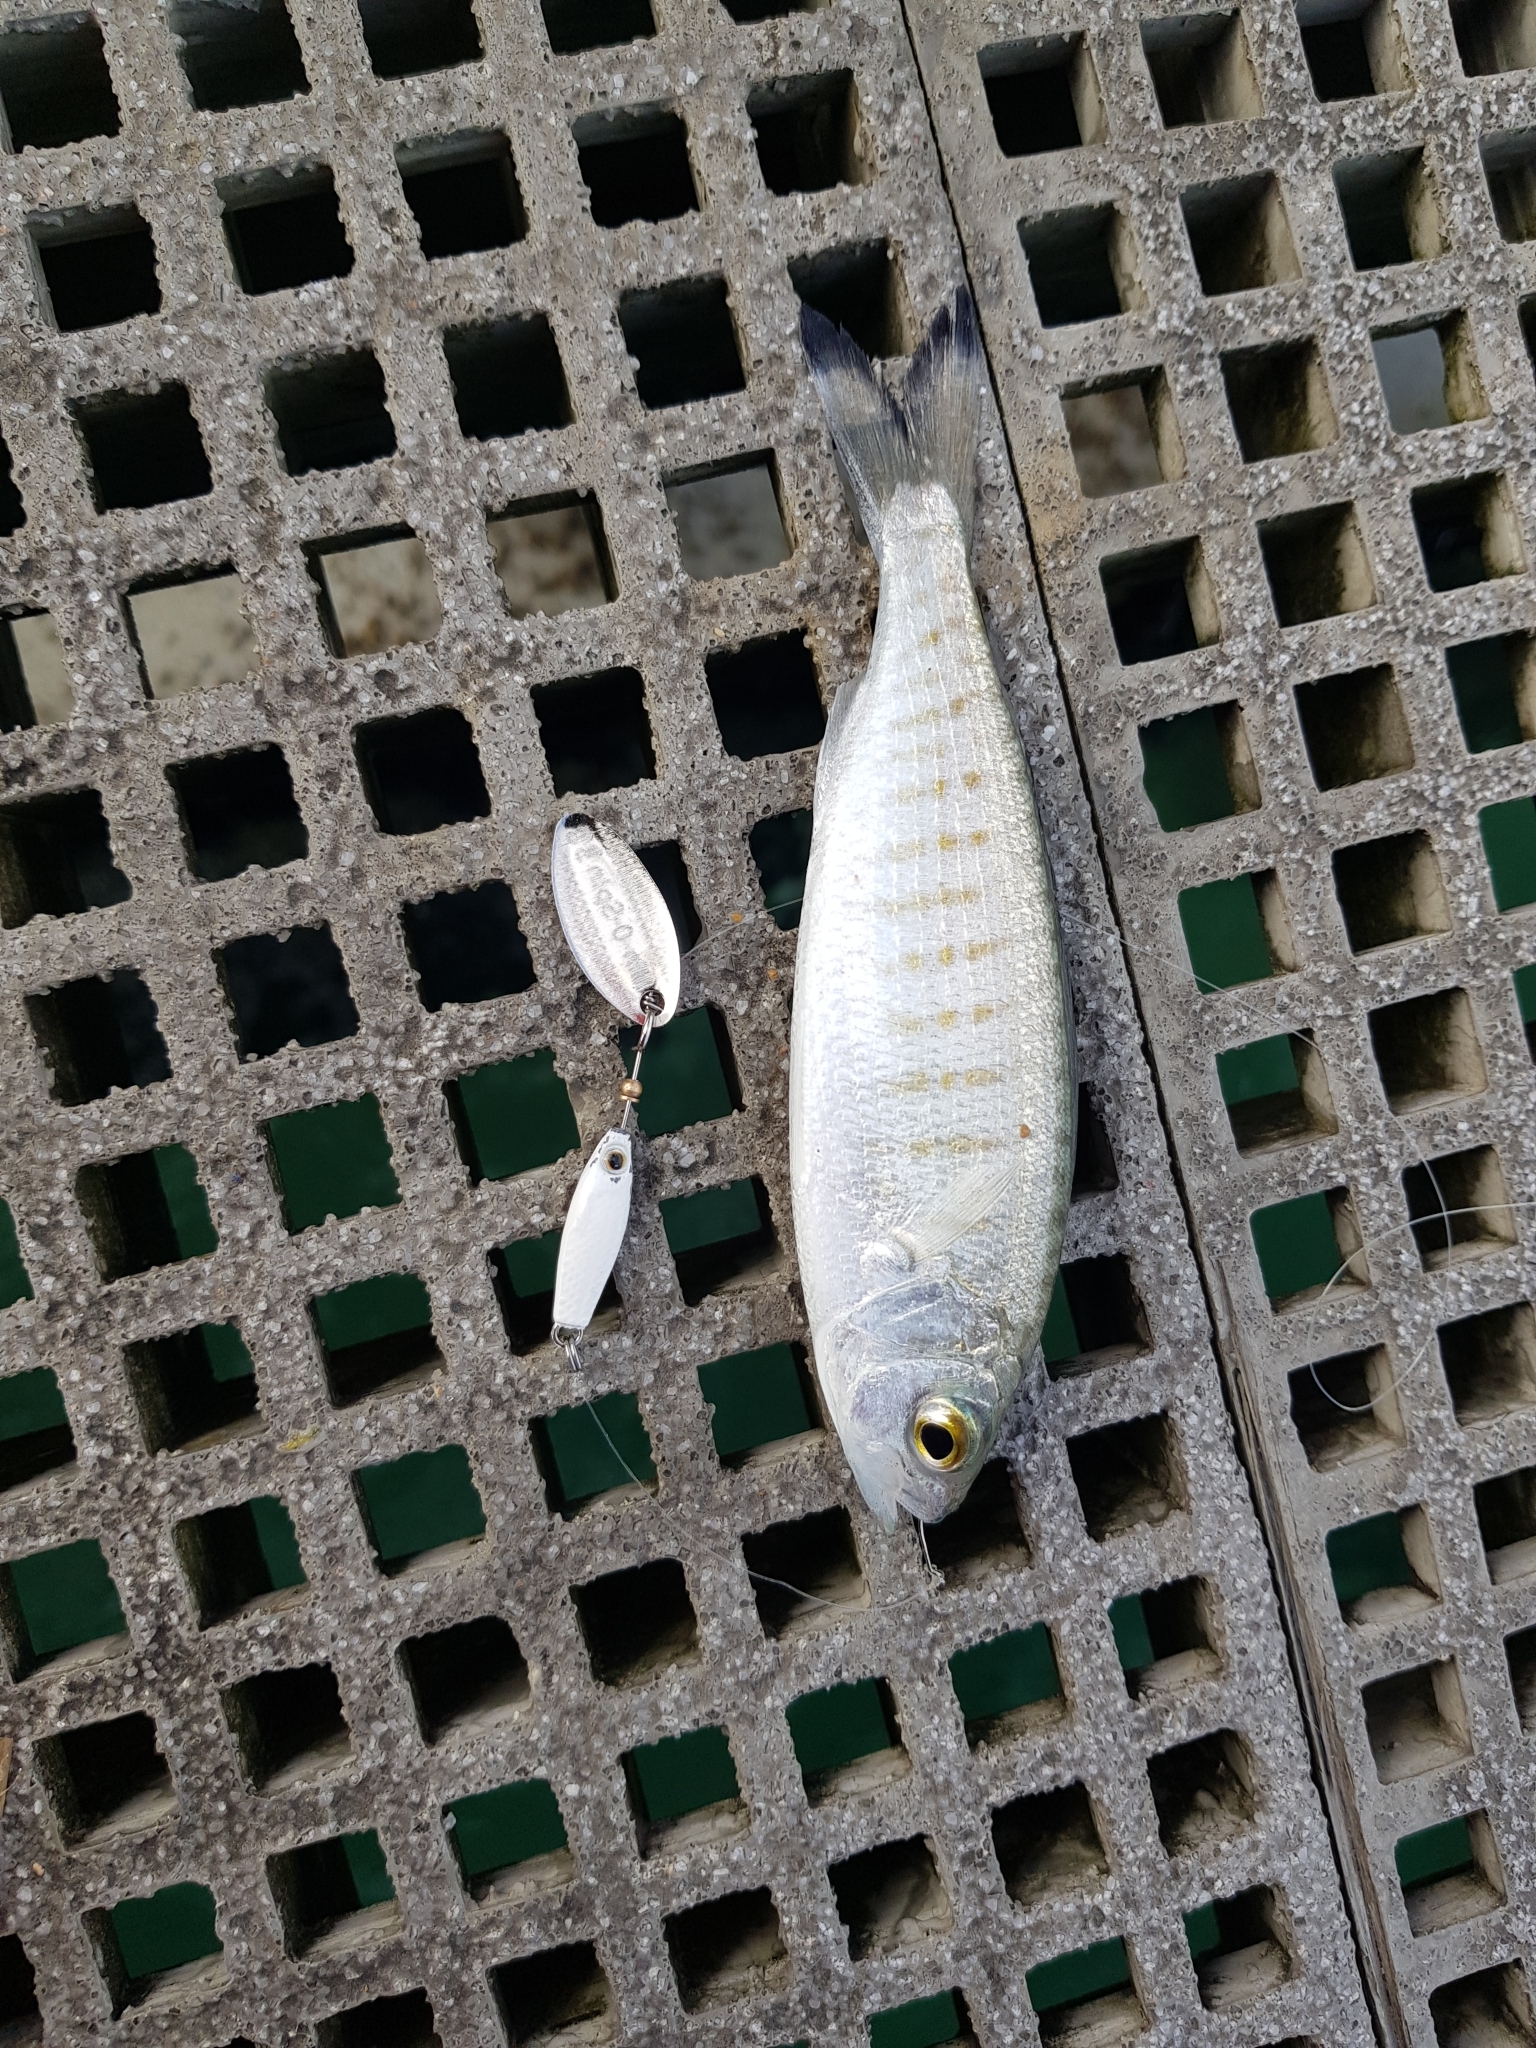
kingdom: Animalia
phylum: Chordata
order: Perciformes
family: Arripidae
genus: Arripis
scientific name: Arripis georgianus
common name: Australian herring
